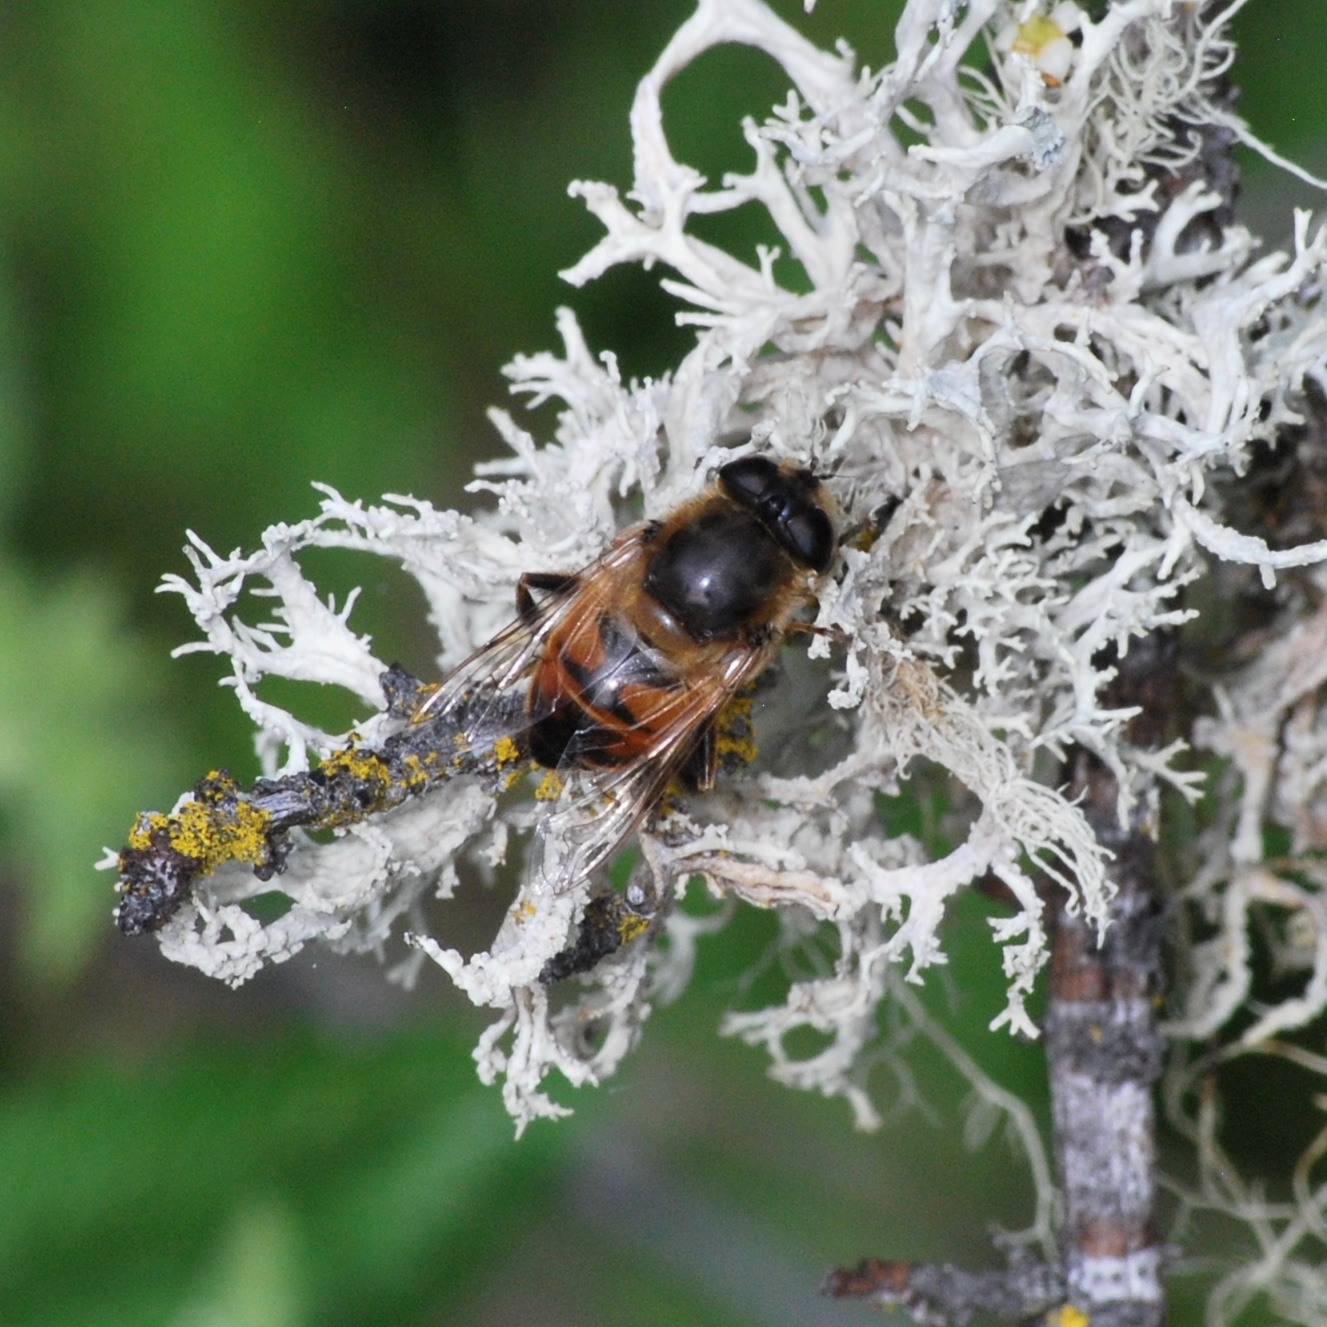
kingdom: Animalia
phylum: Arthropoda
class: Insecta
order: Diptera
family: Syrphidae
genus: Eristalis
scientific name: Eristalis tenax
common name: Drone fly
